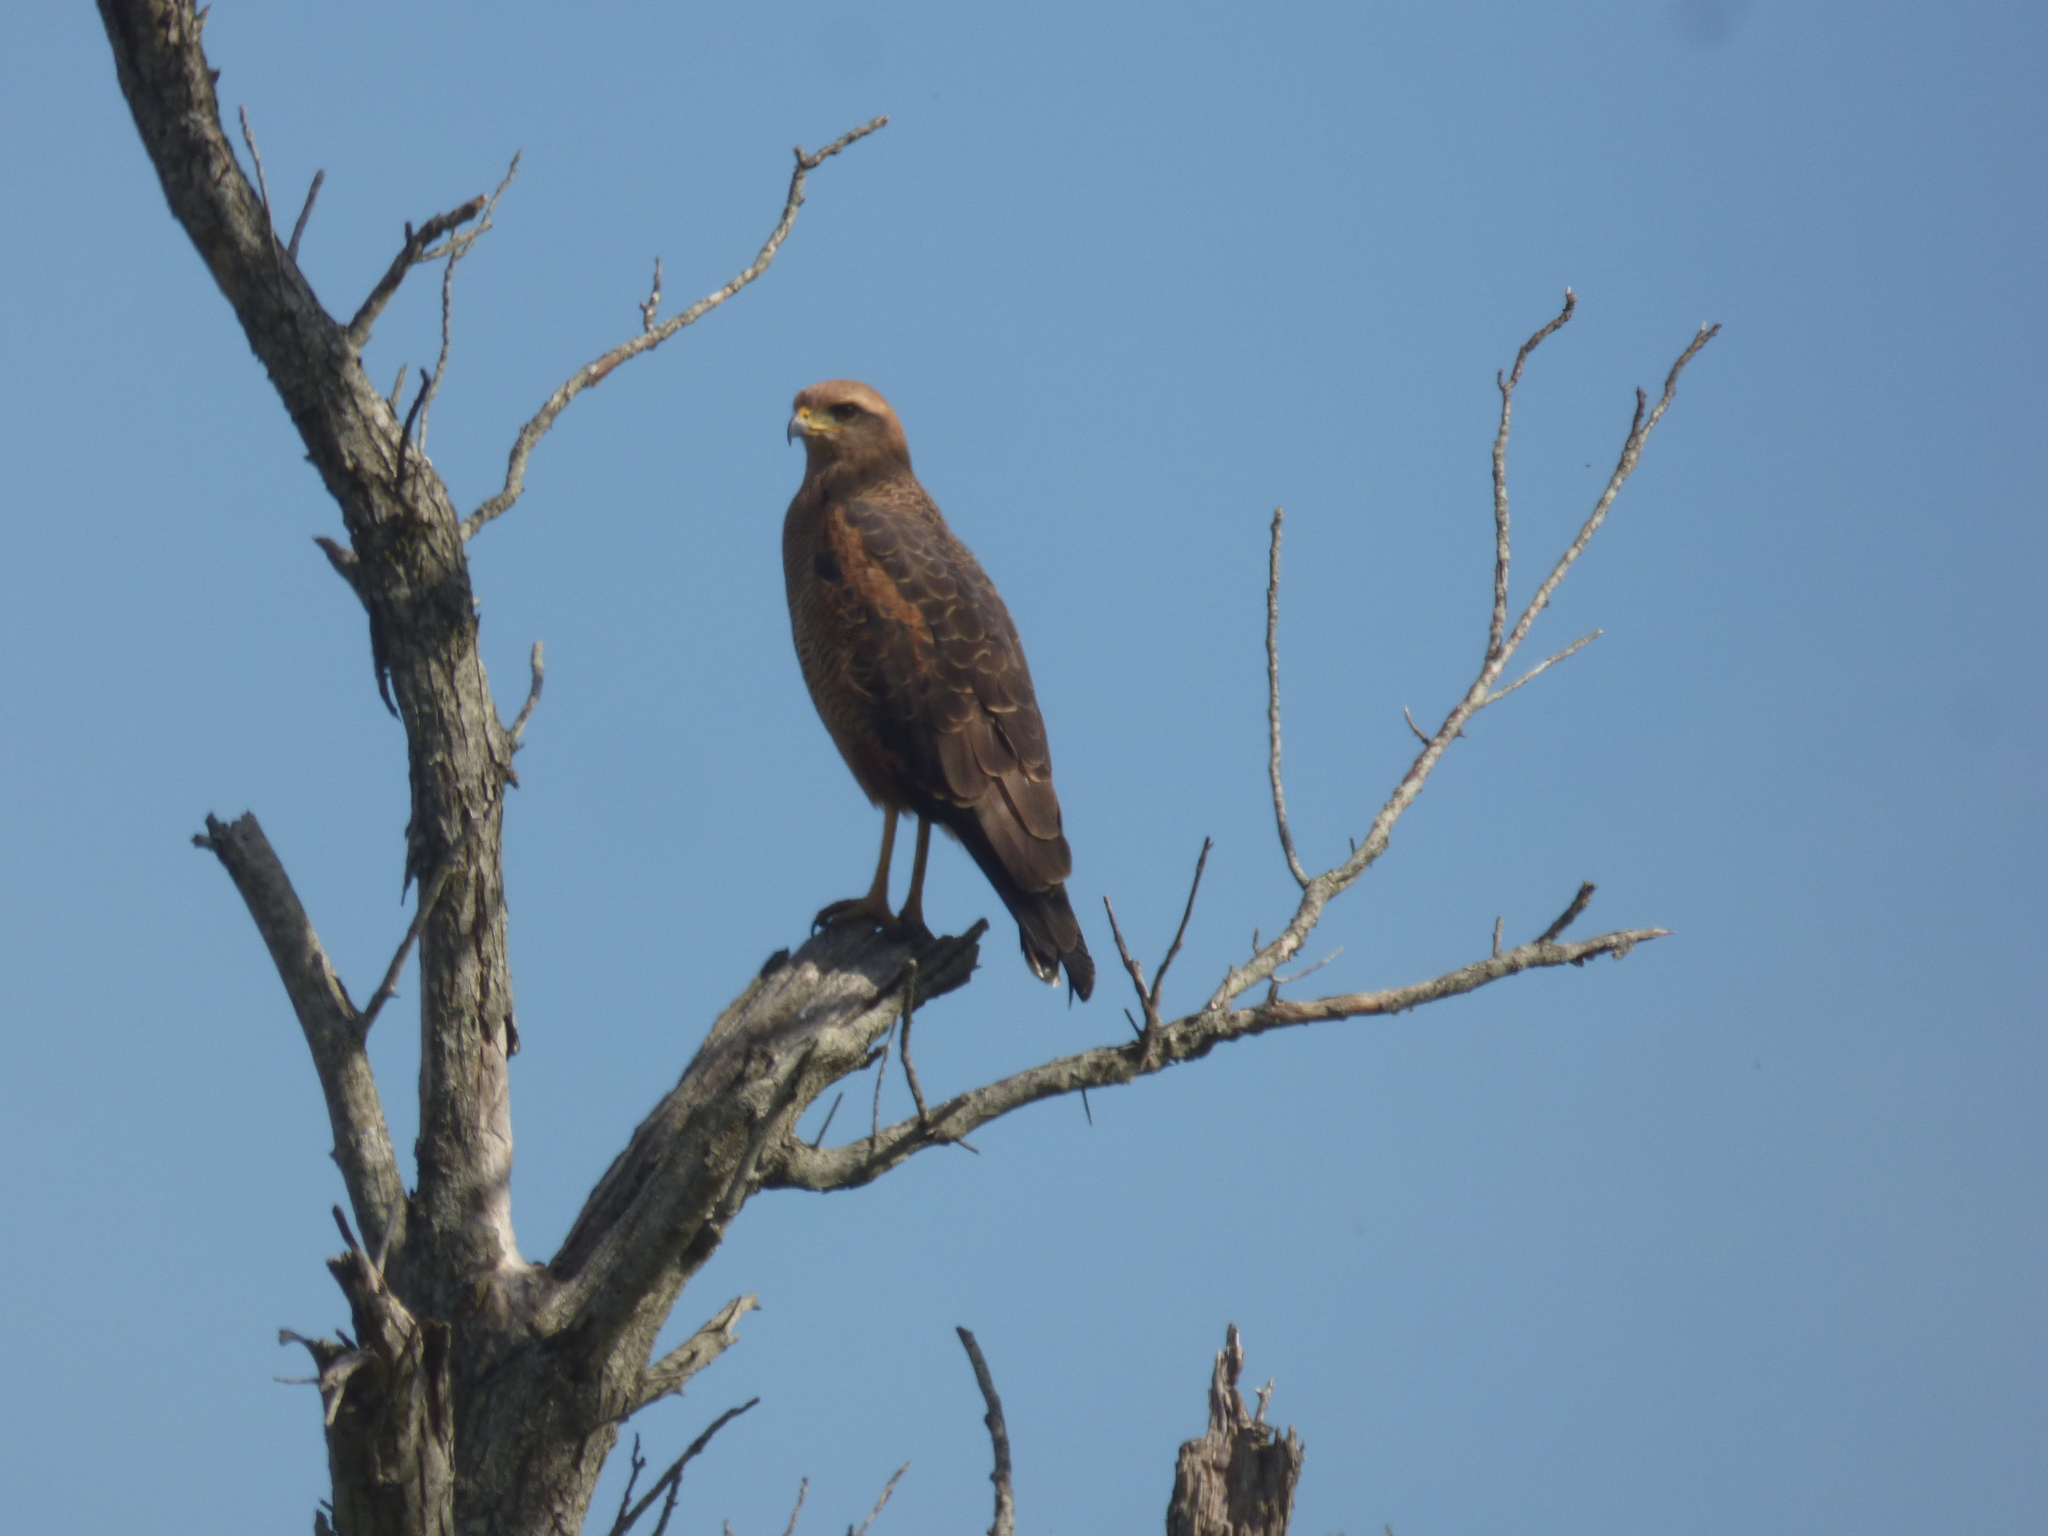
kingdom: Animalia
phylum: Chordata
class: Aves
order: Accipitriformes
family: Accipitridae
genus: Buteogallus
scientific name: Buteogallus meridionalis
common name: Savanna hawk
